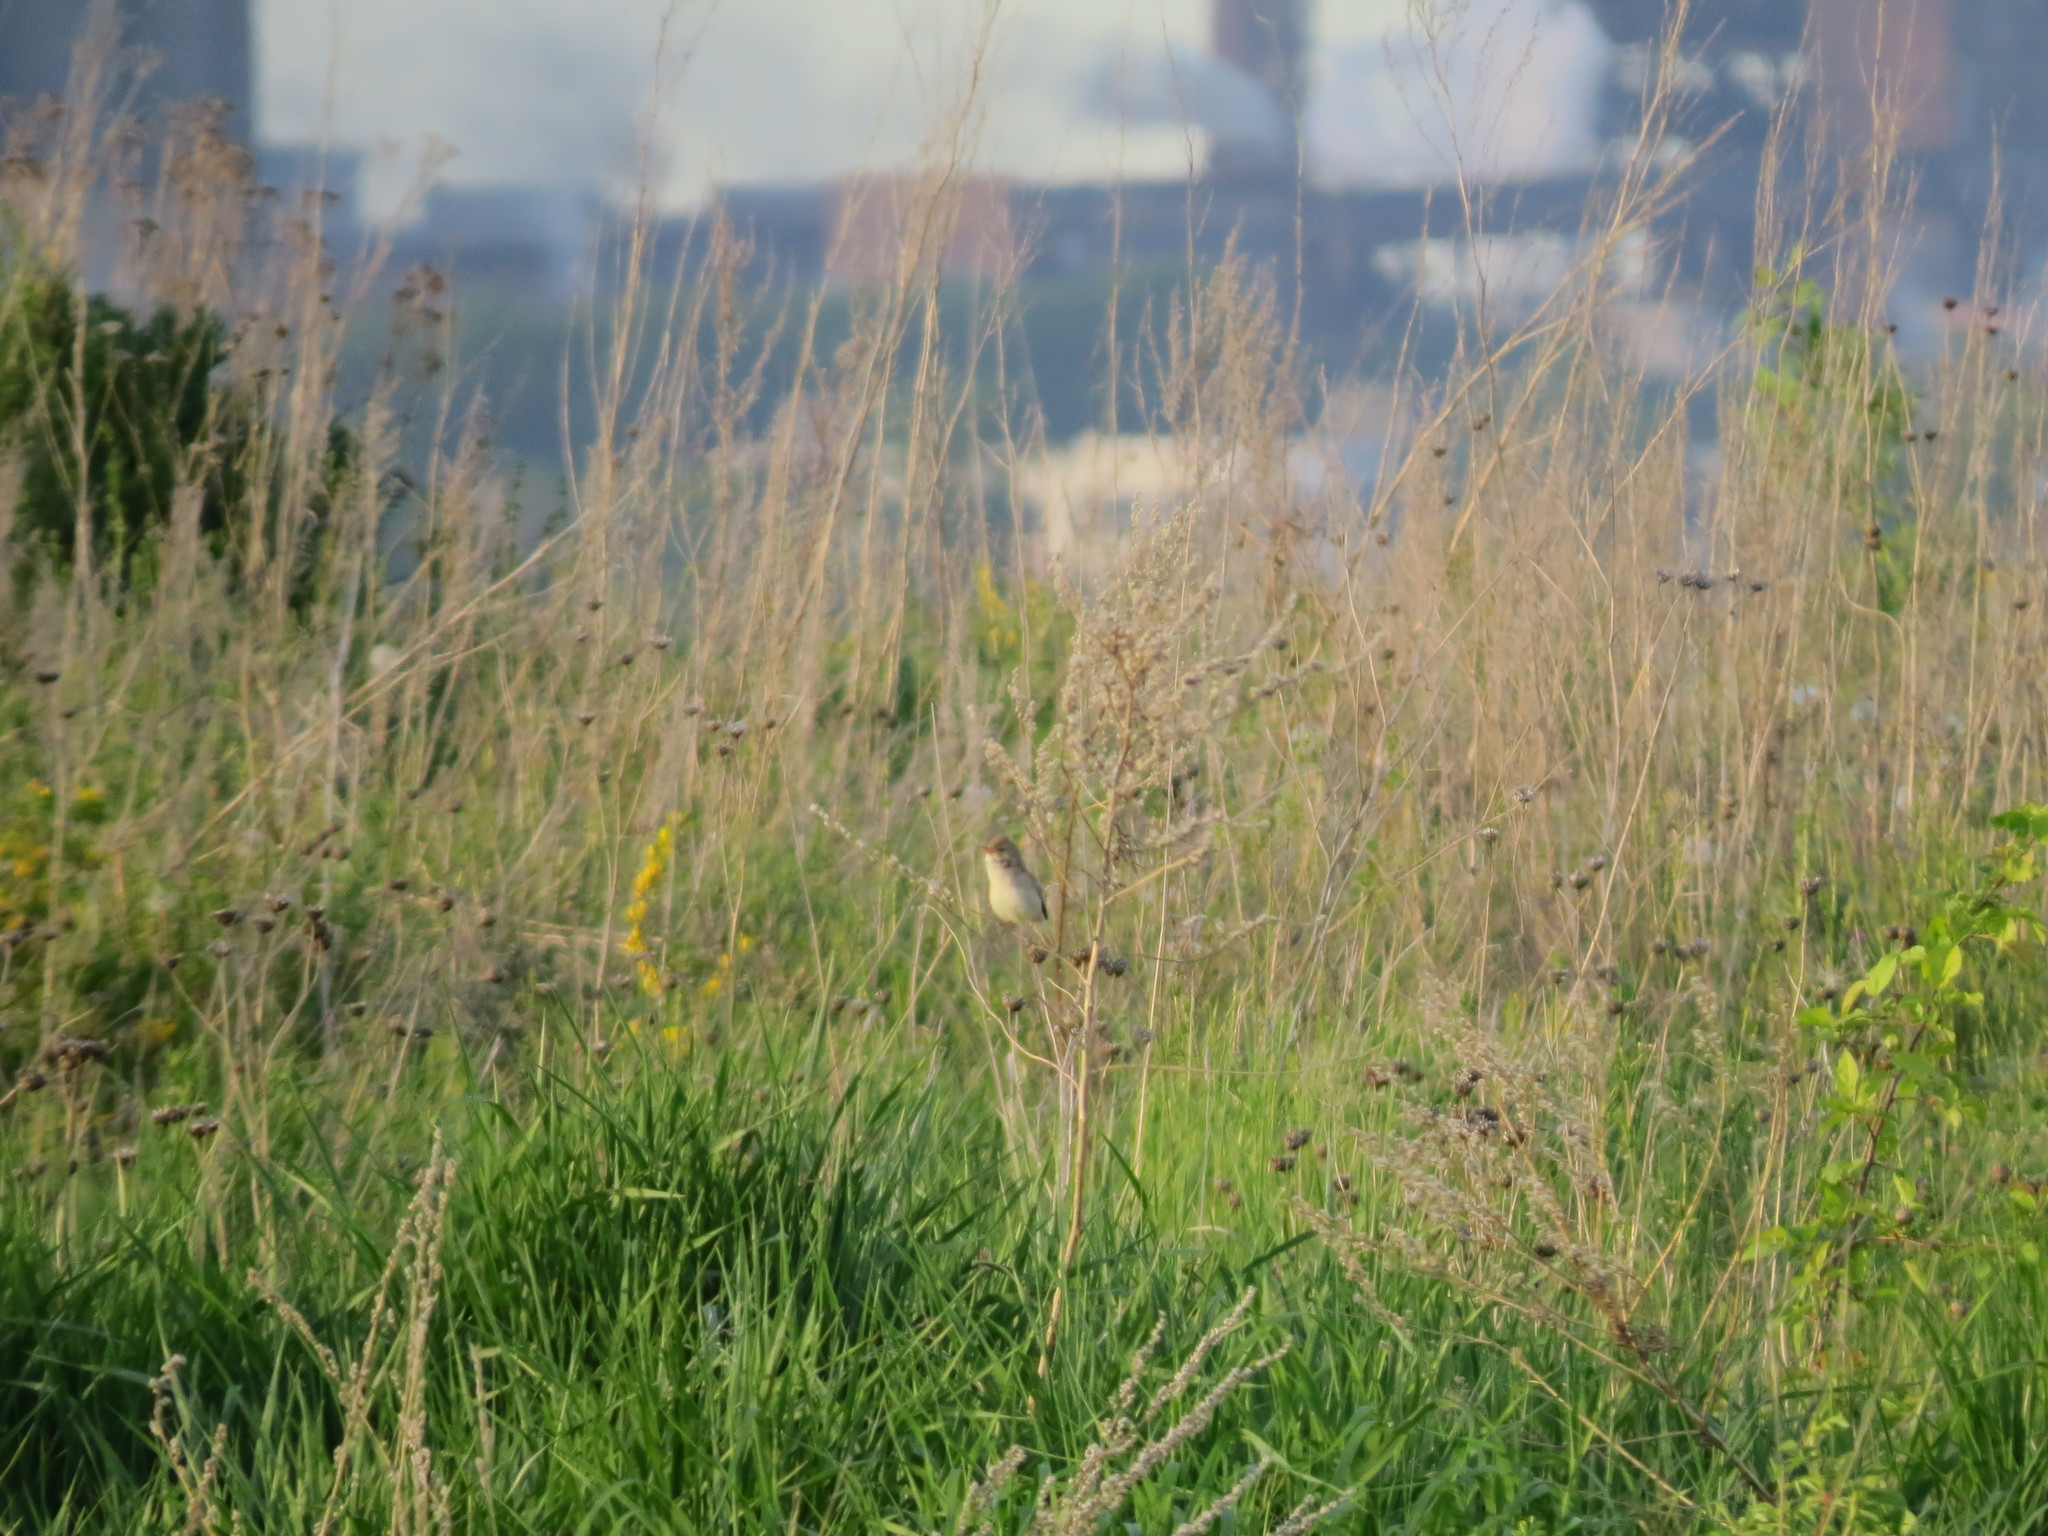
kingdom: Animalia
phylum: Chordata
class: Aves
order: Passeriformes
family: Acrocephalidae
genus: Iduna
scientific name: Iduna caligata
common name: Booted warbler
